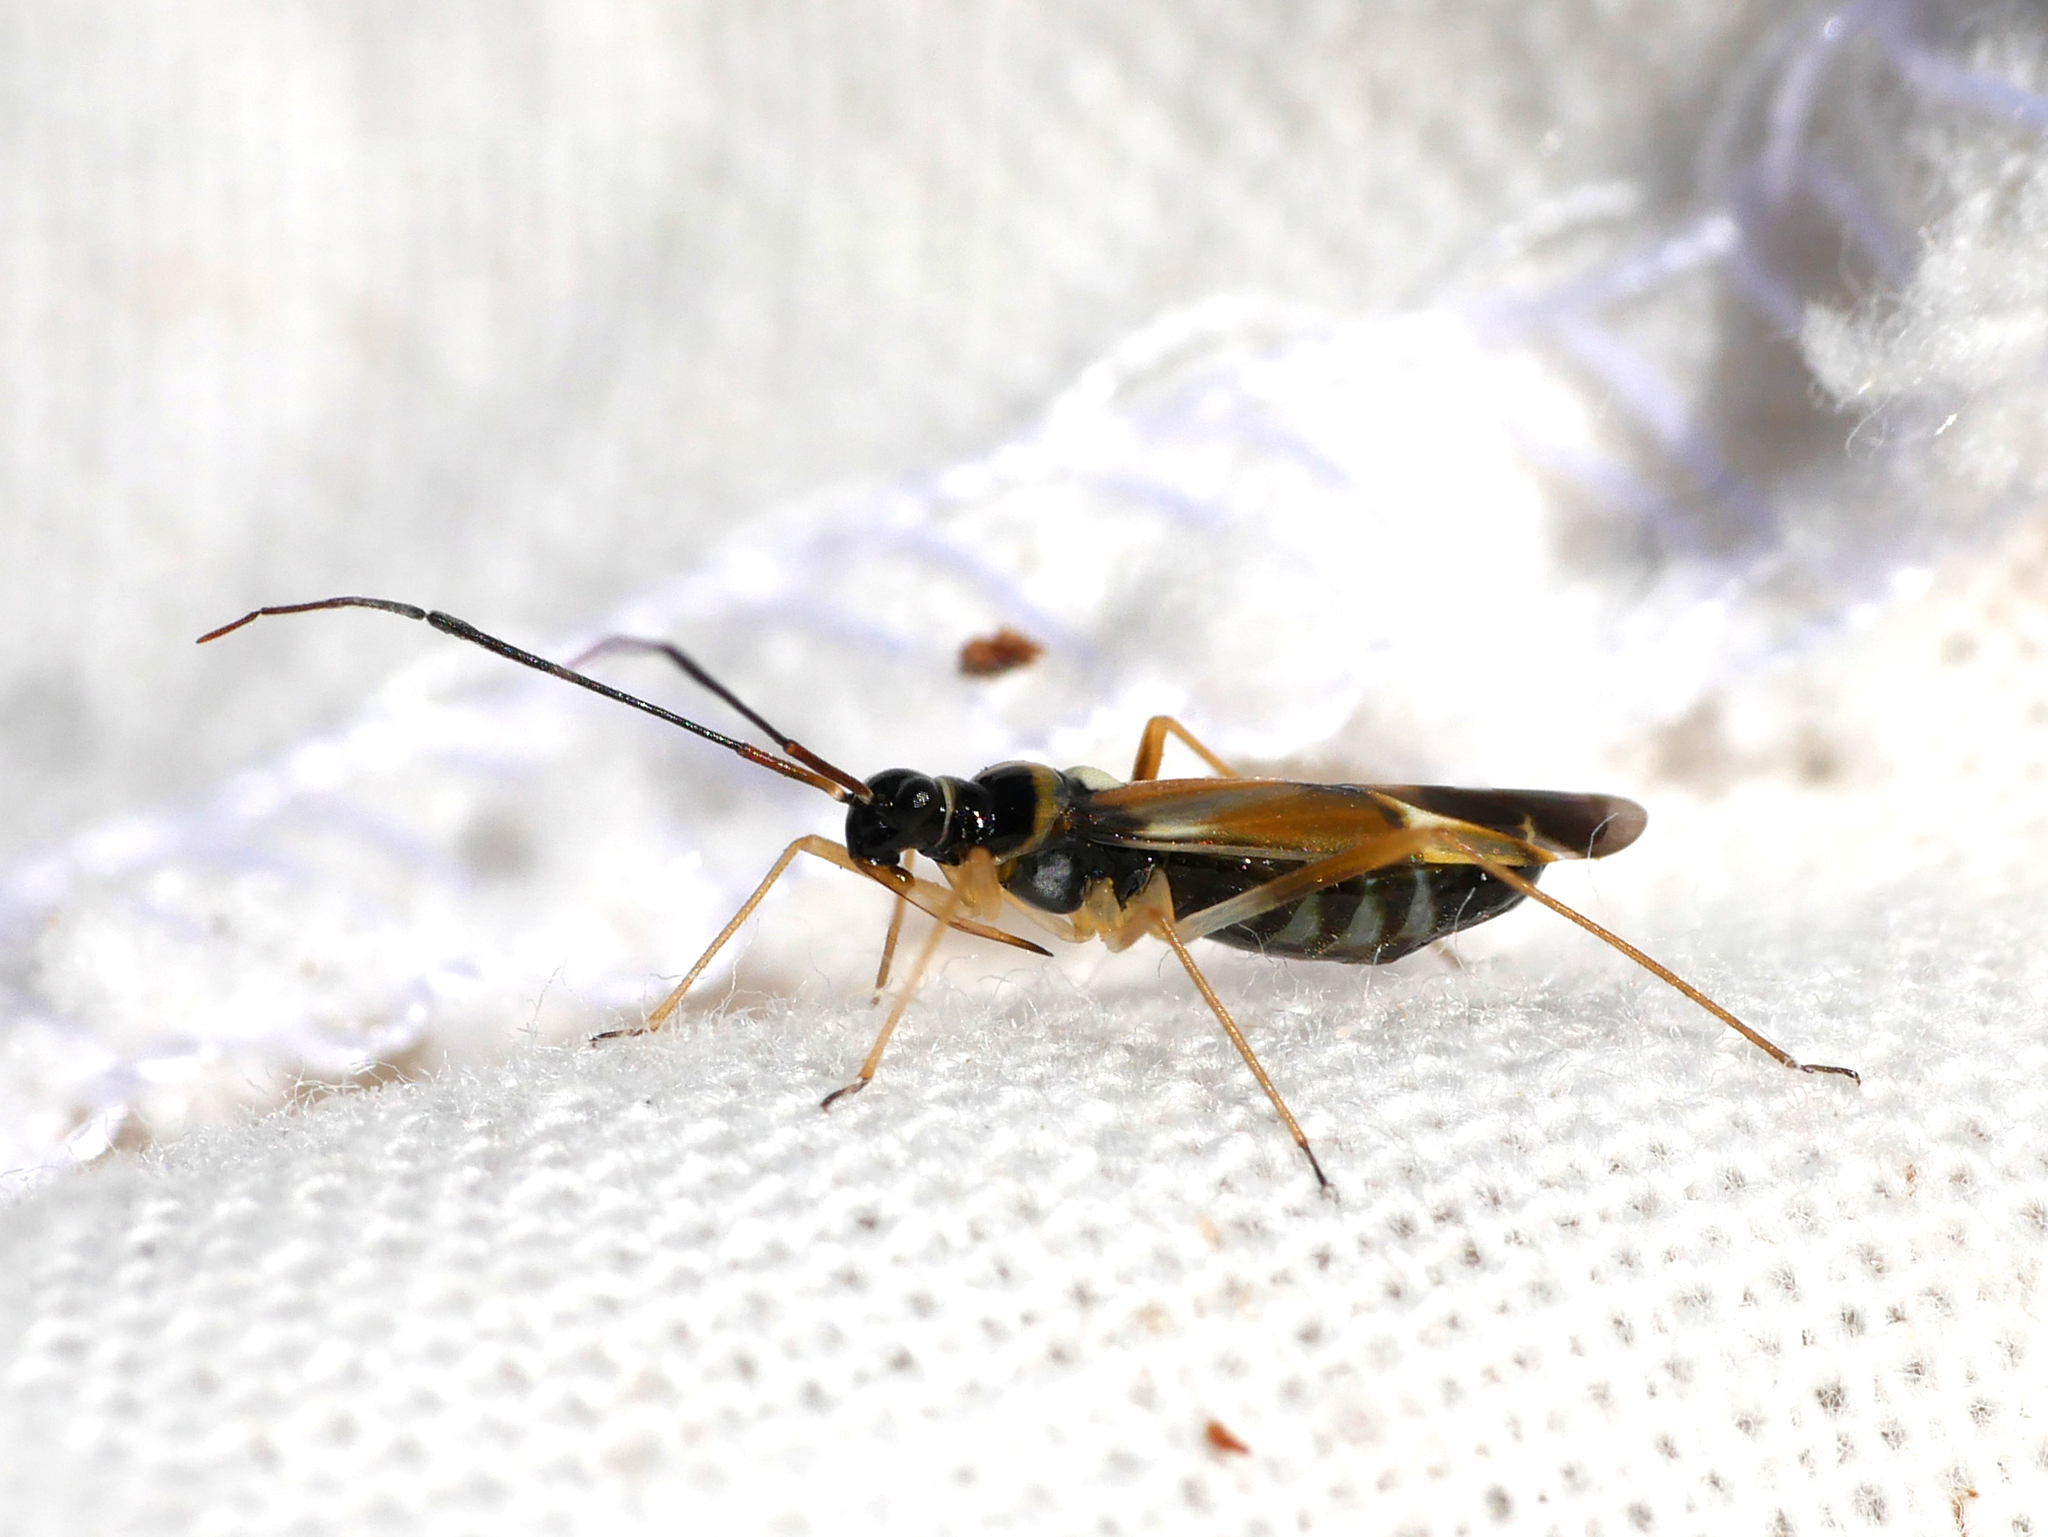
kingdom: Animalia
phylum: Arthropoda
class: Insecta
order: Hemiptera
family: Miridae
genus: Cyllecoris
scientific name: Cyllecoris histrionius
